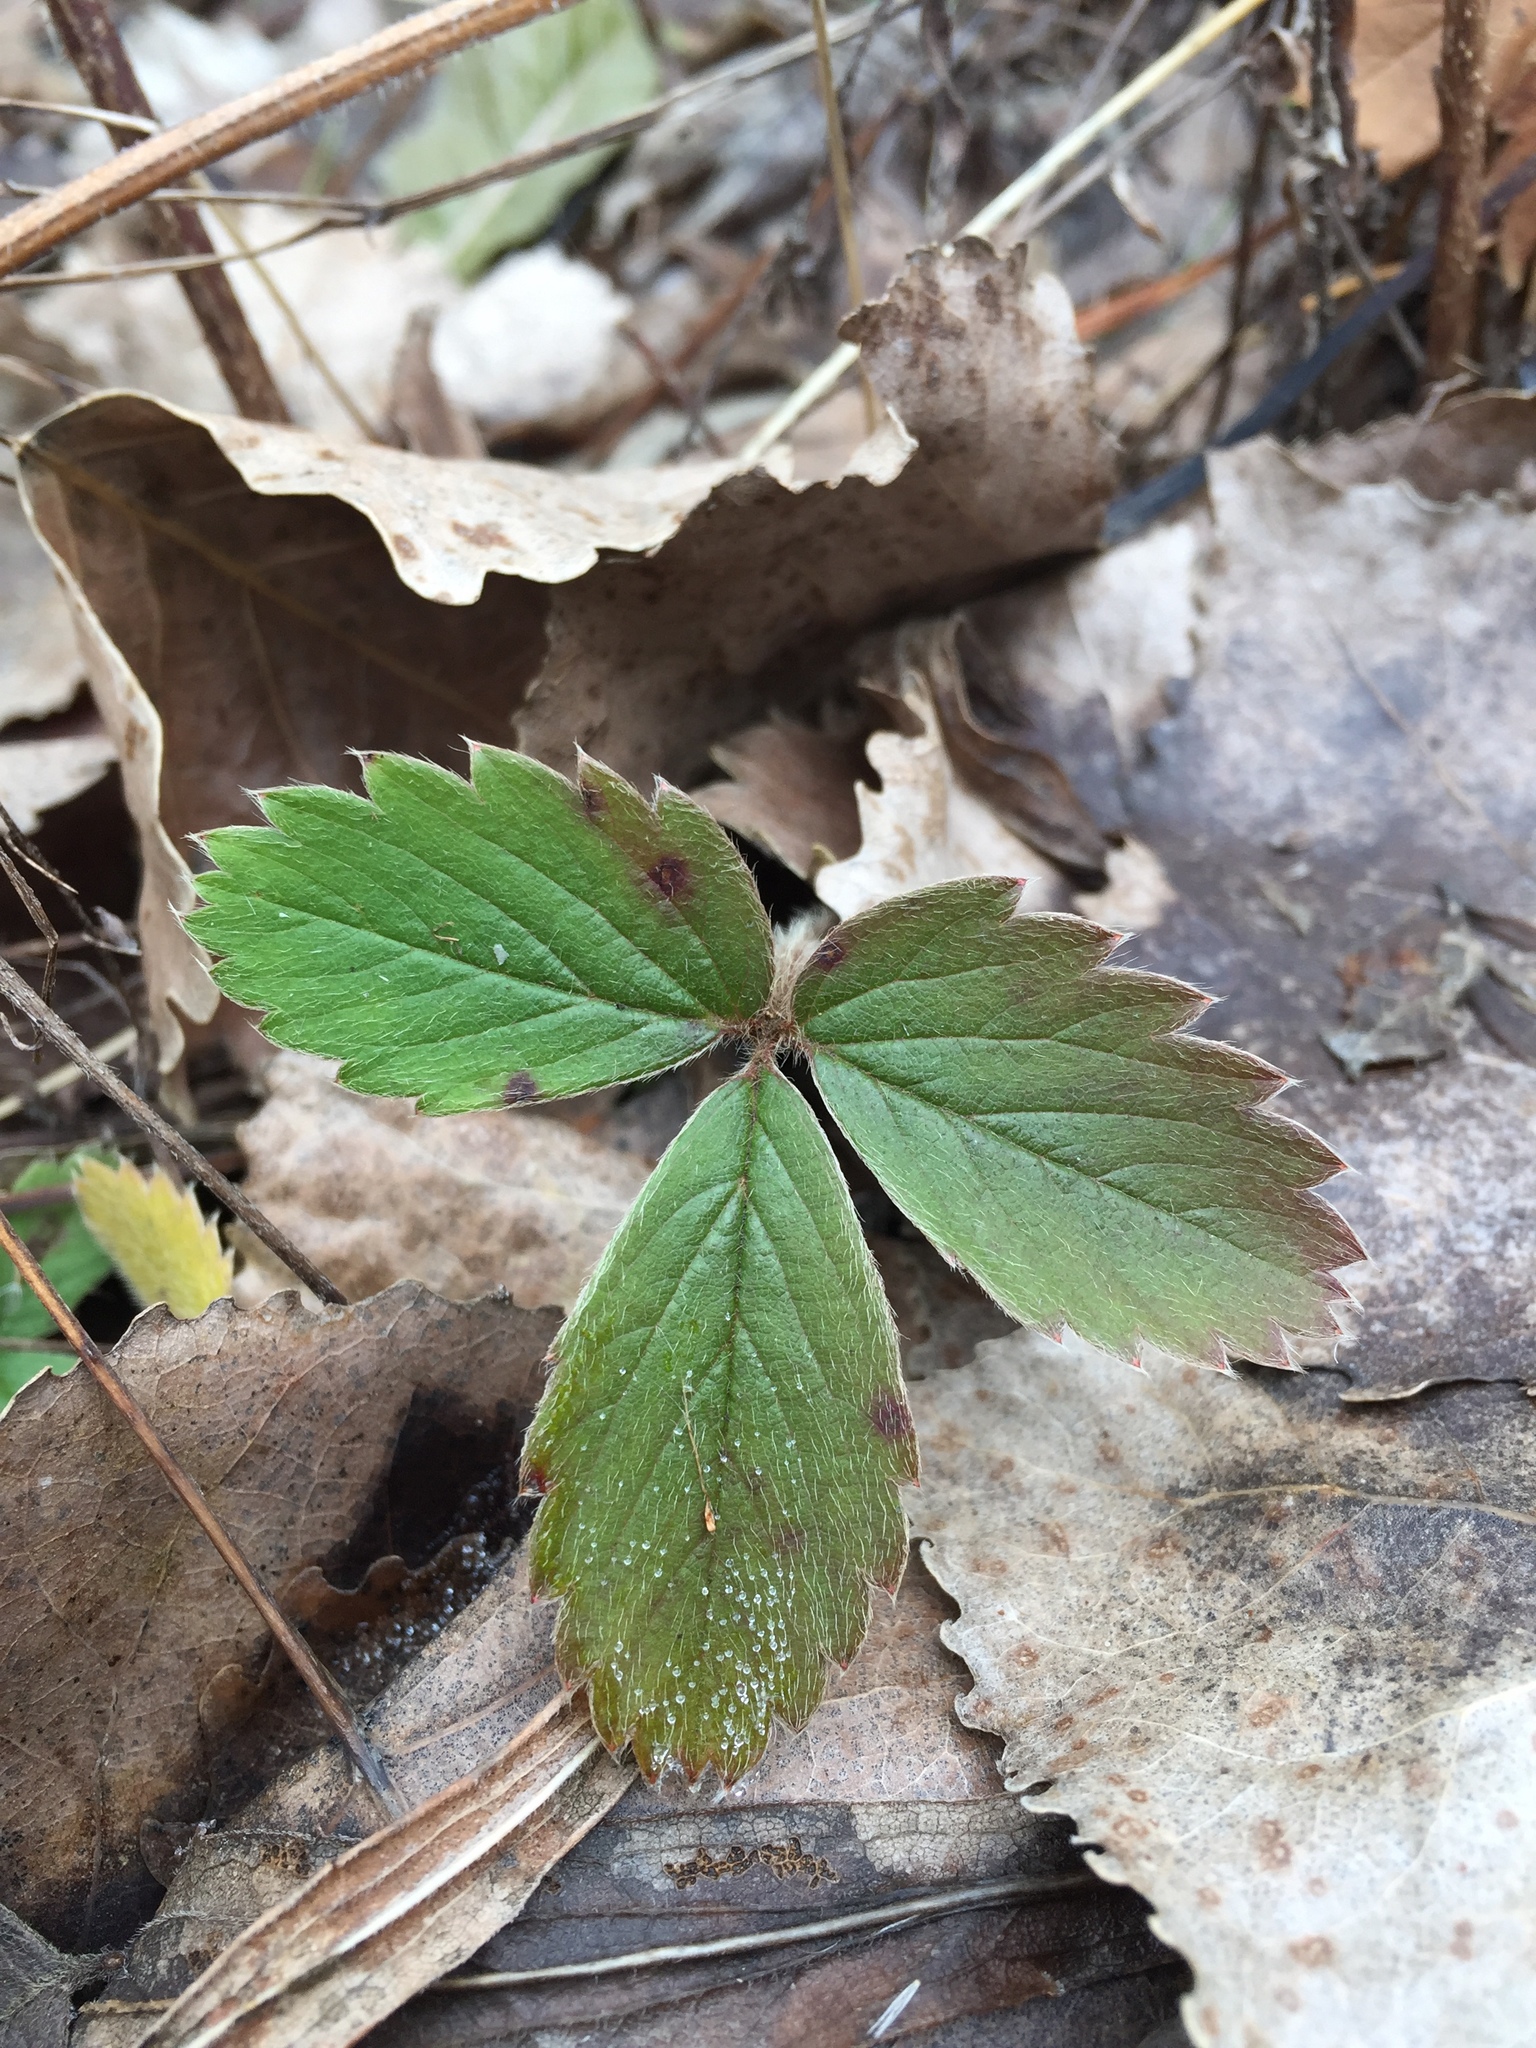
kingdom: Plantae
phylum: Tracheophyta
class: Magnoliopsida
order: Rosales
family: Rosaceae
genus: Fragaria
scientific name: Fragaria virginiana
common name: Thickleaved wild strawberry
